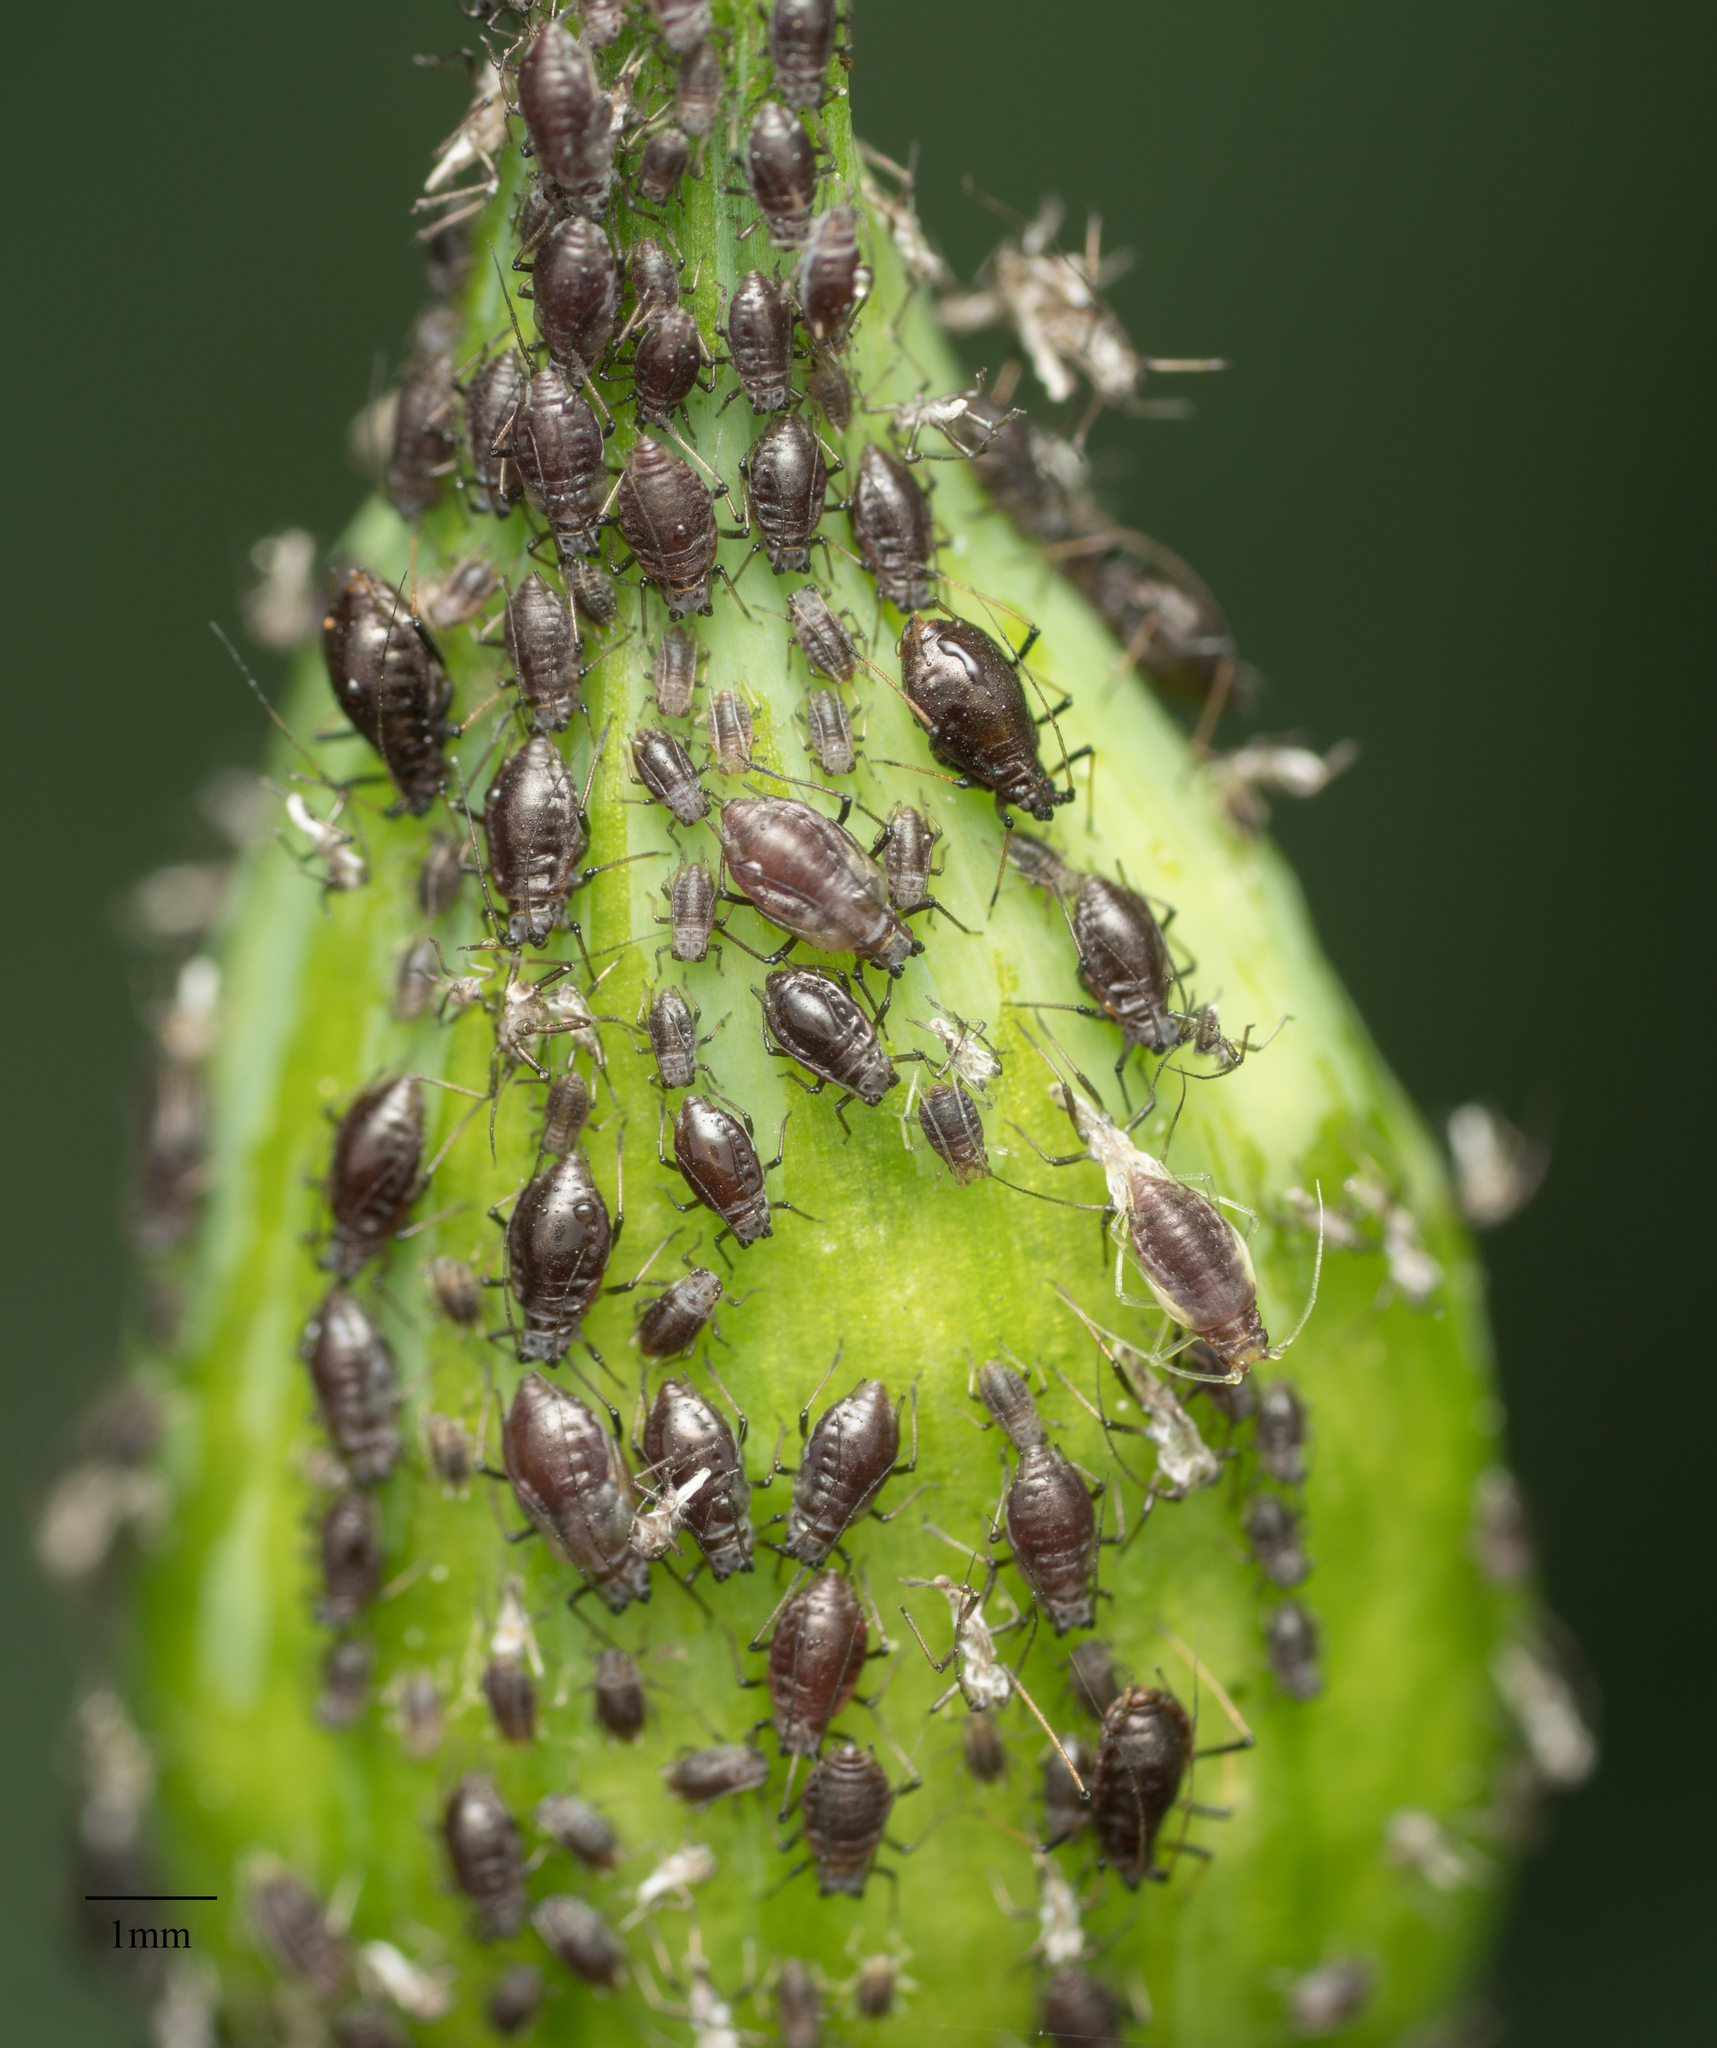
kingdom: Animalia
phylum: Arthropoda
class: Insecta
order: Hemiptera
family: Aphididae
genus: Neotoxoptera
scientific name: Neotoxoptera formosana
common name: Onion aphid
